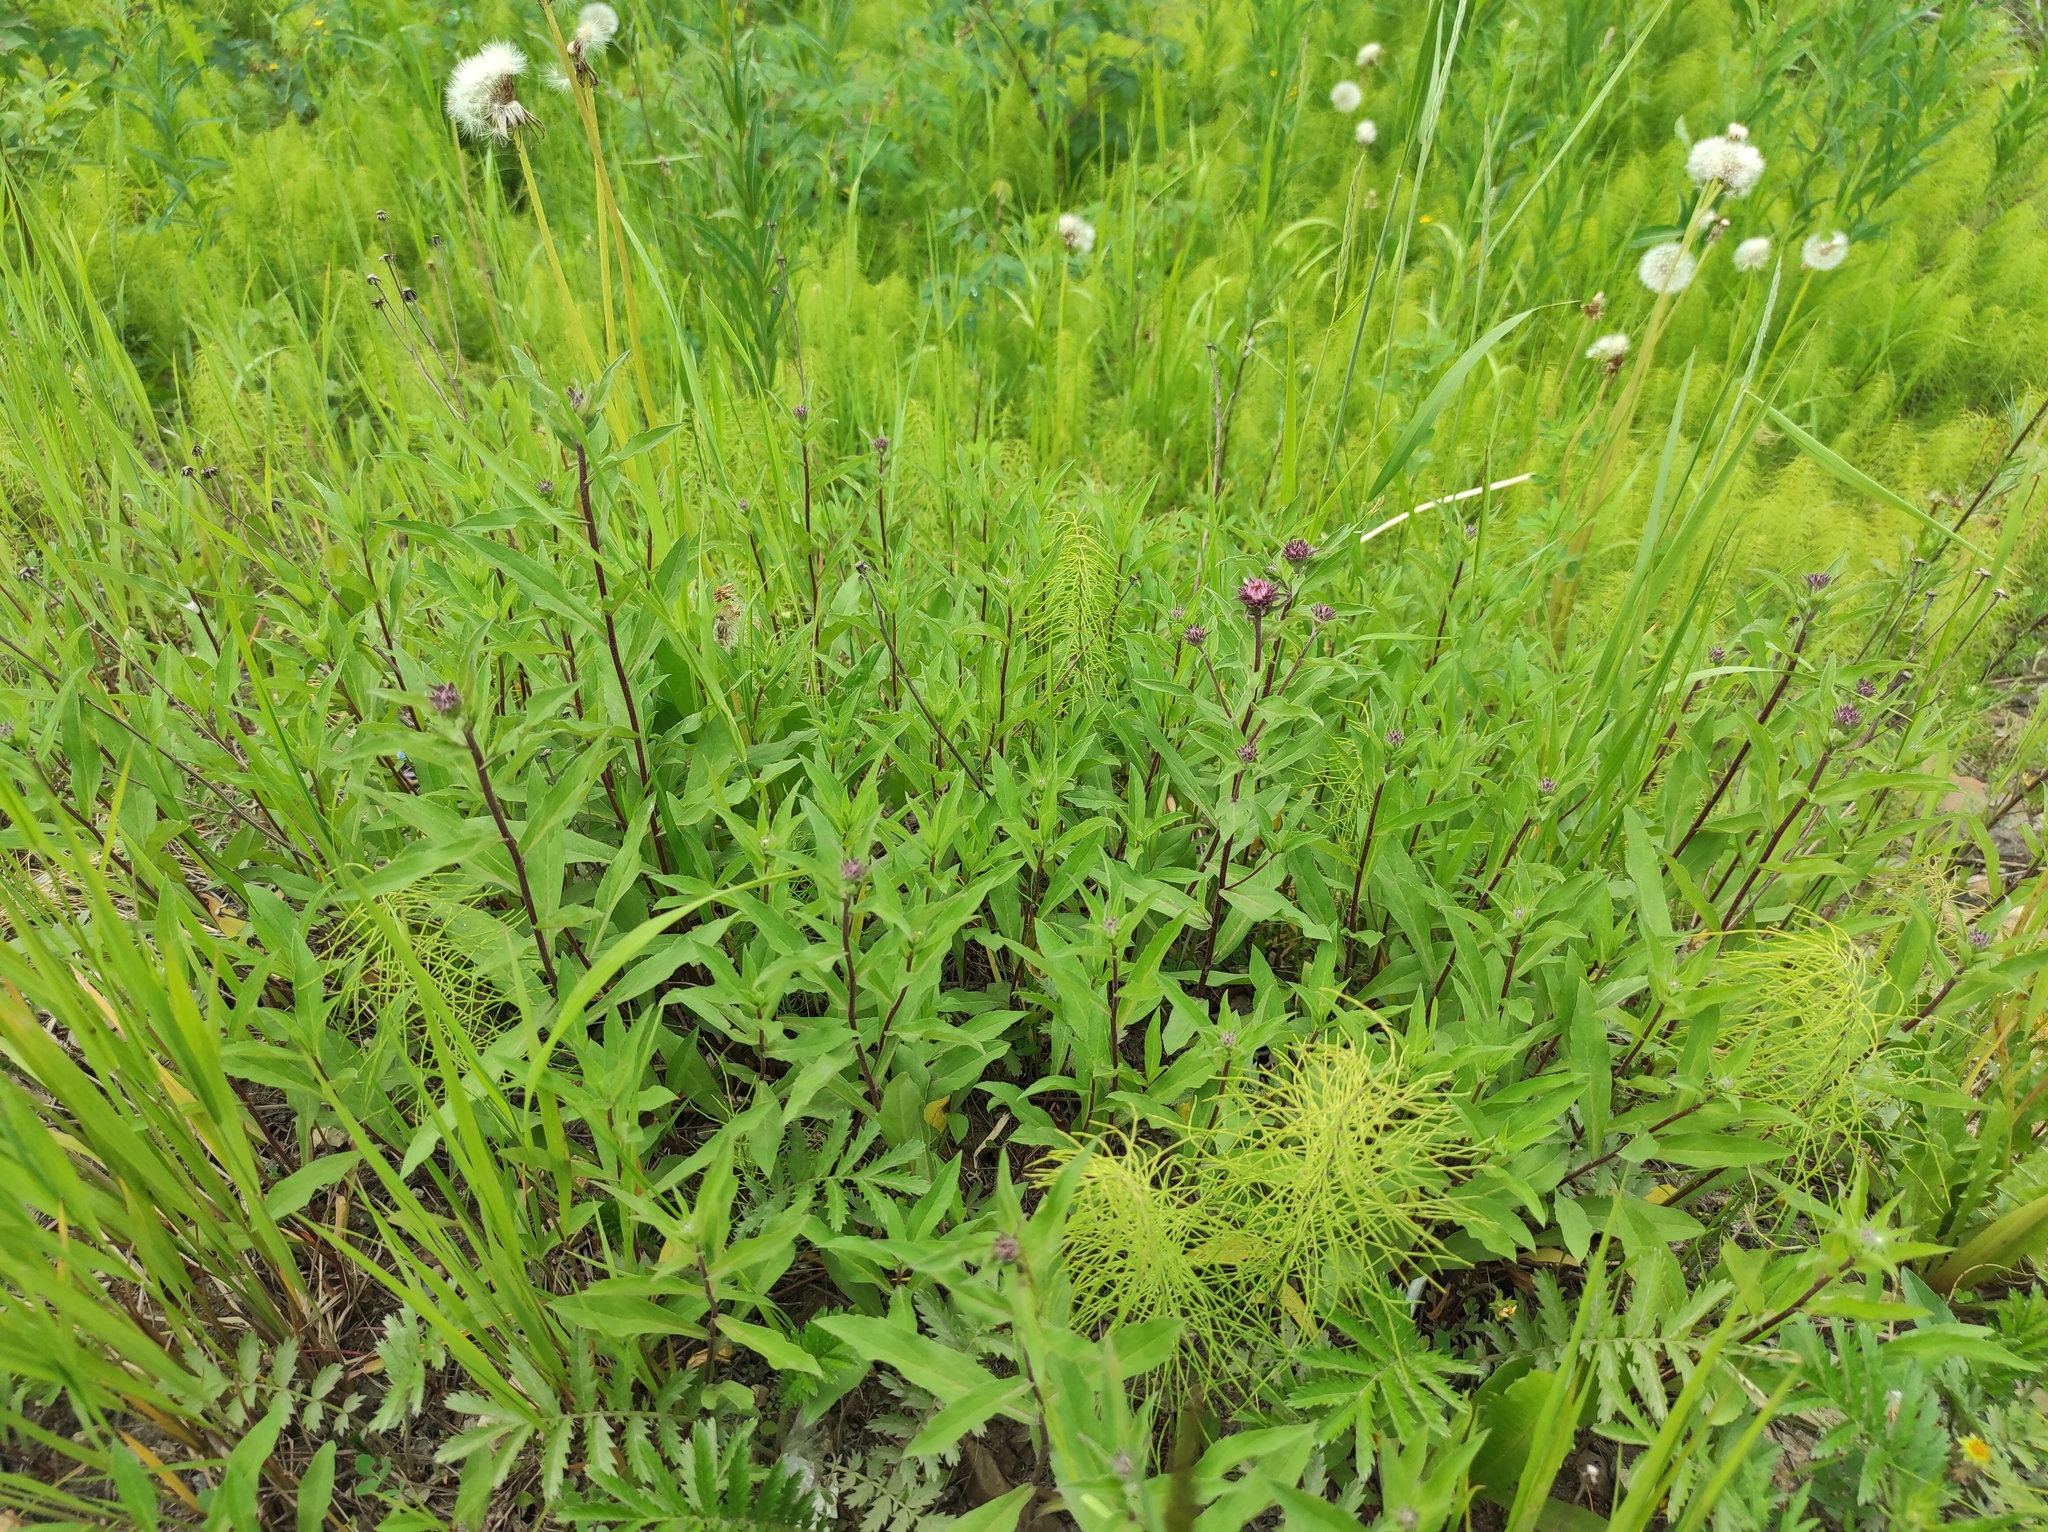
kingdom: Plantae
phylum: Tracheophyta
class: Magnoliopsida
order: Asterales
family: Asteraceae
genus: Eurybia
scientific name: Eurybia sibirica
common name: Arctic aster
